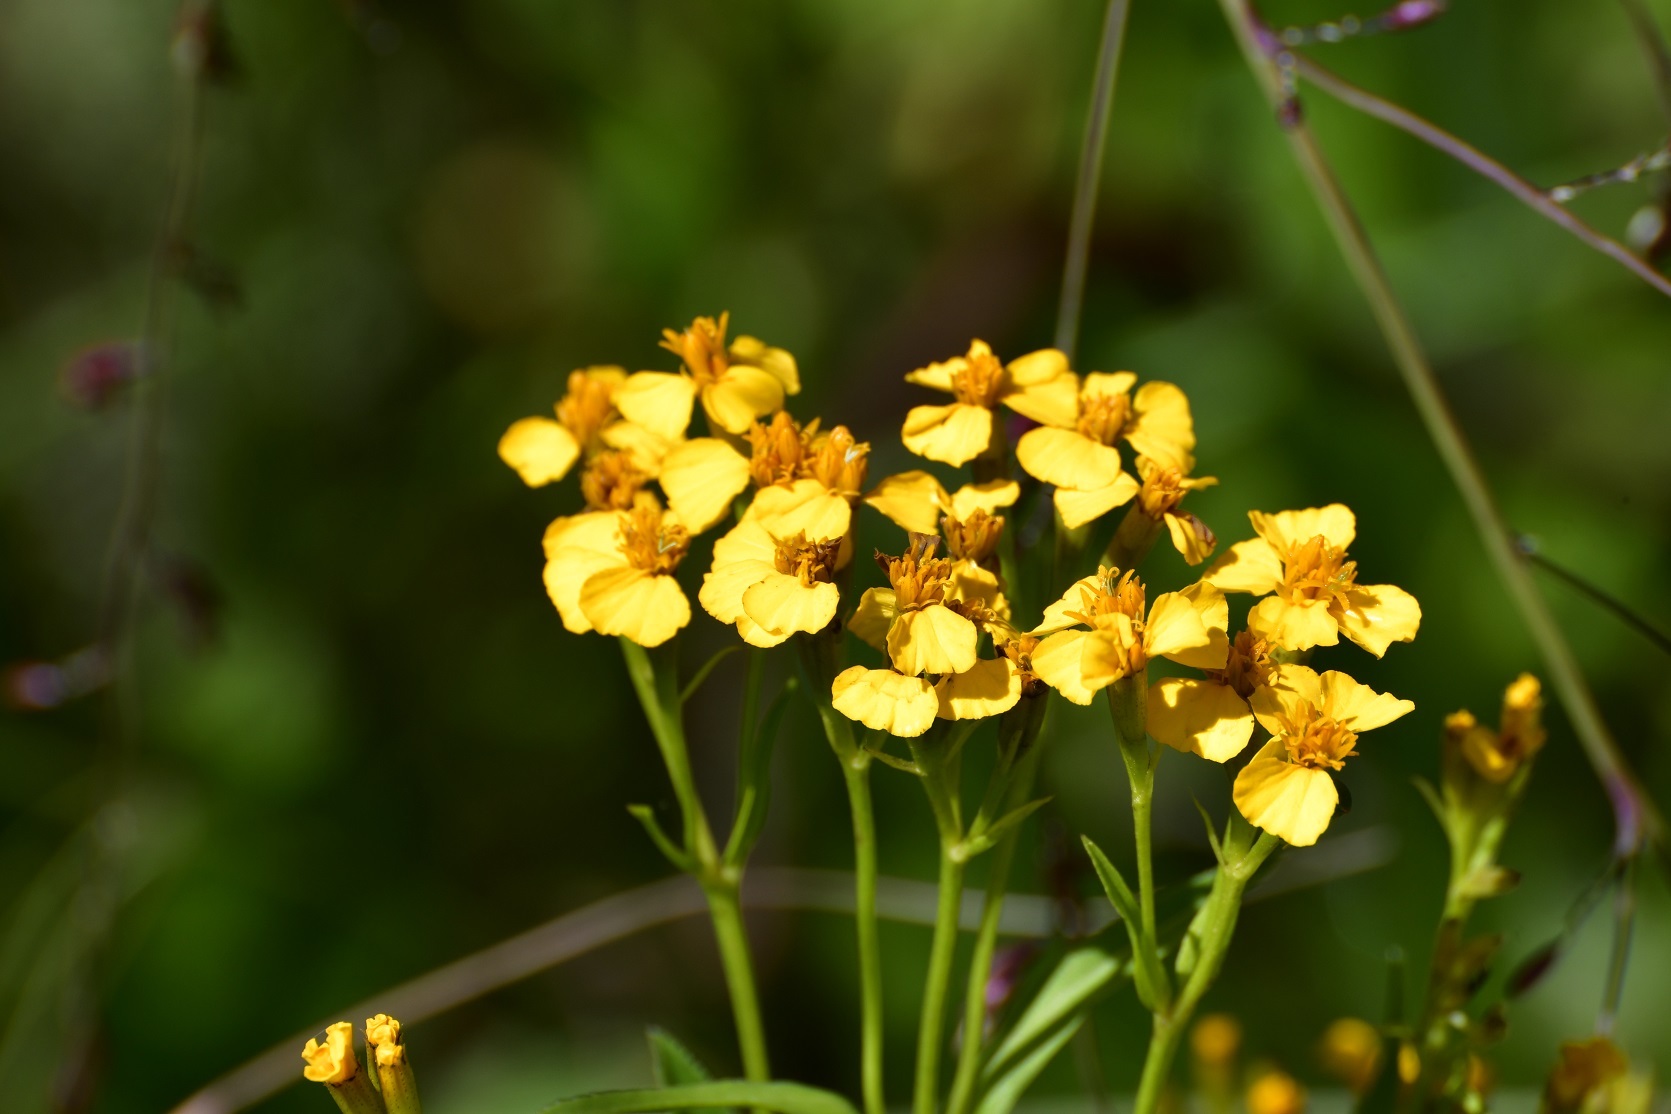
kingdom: Plantae
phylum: Tracheophyta
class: Magnoliopsida
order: Asterales
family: Asteraceae
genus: Tagetes
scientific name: Tagetes lucida
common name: Sweetscented marigold
